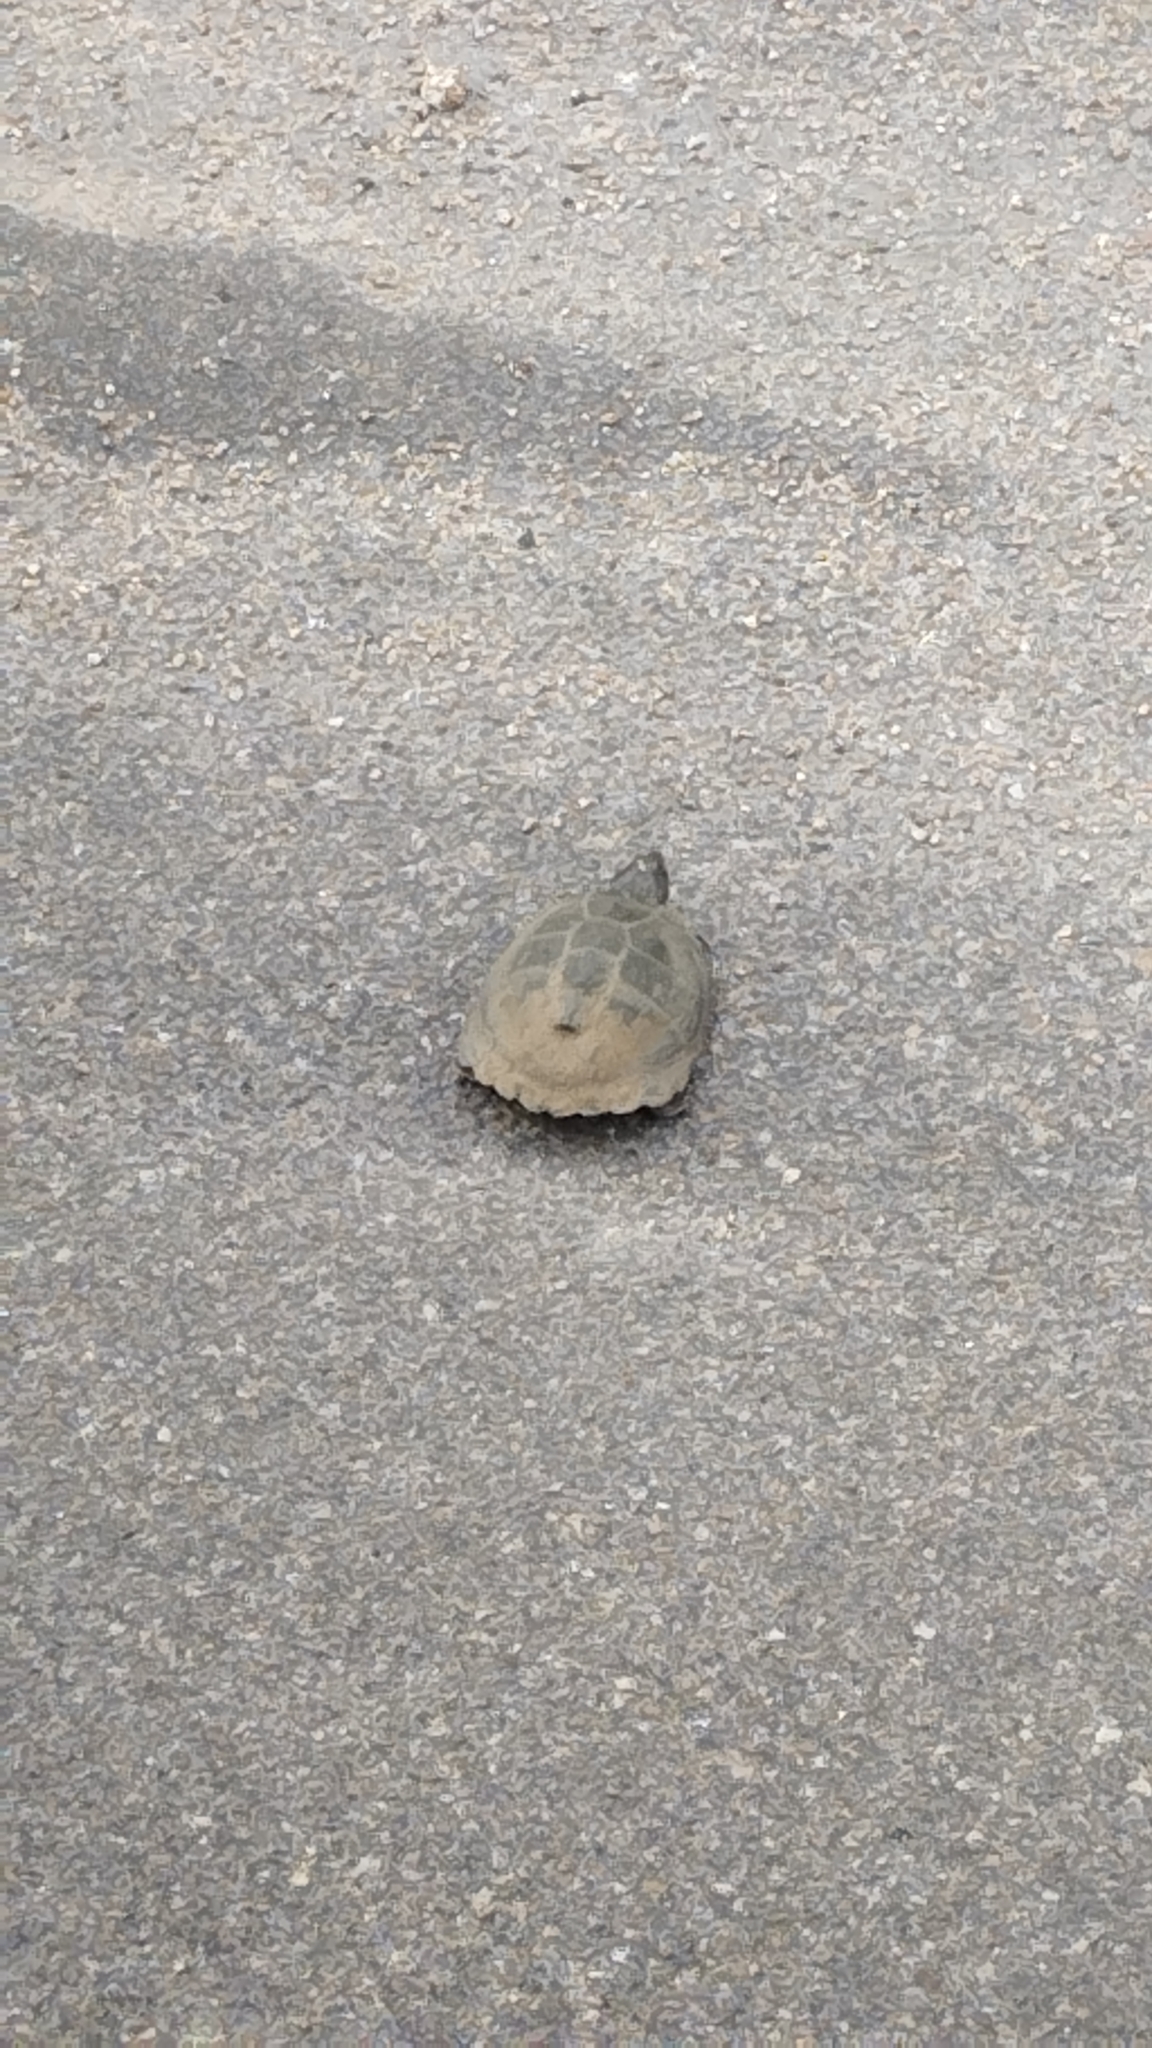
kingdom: Animalia
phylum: Chordata
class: Testudines
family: Pelomedusidae
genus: Pelusios
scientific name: Pelusios sinuatus
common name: Serrated hinged terrapin
